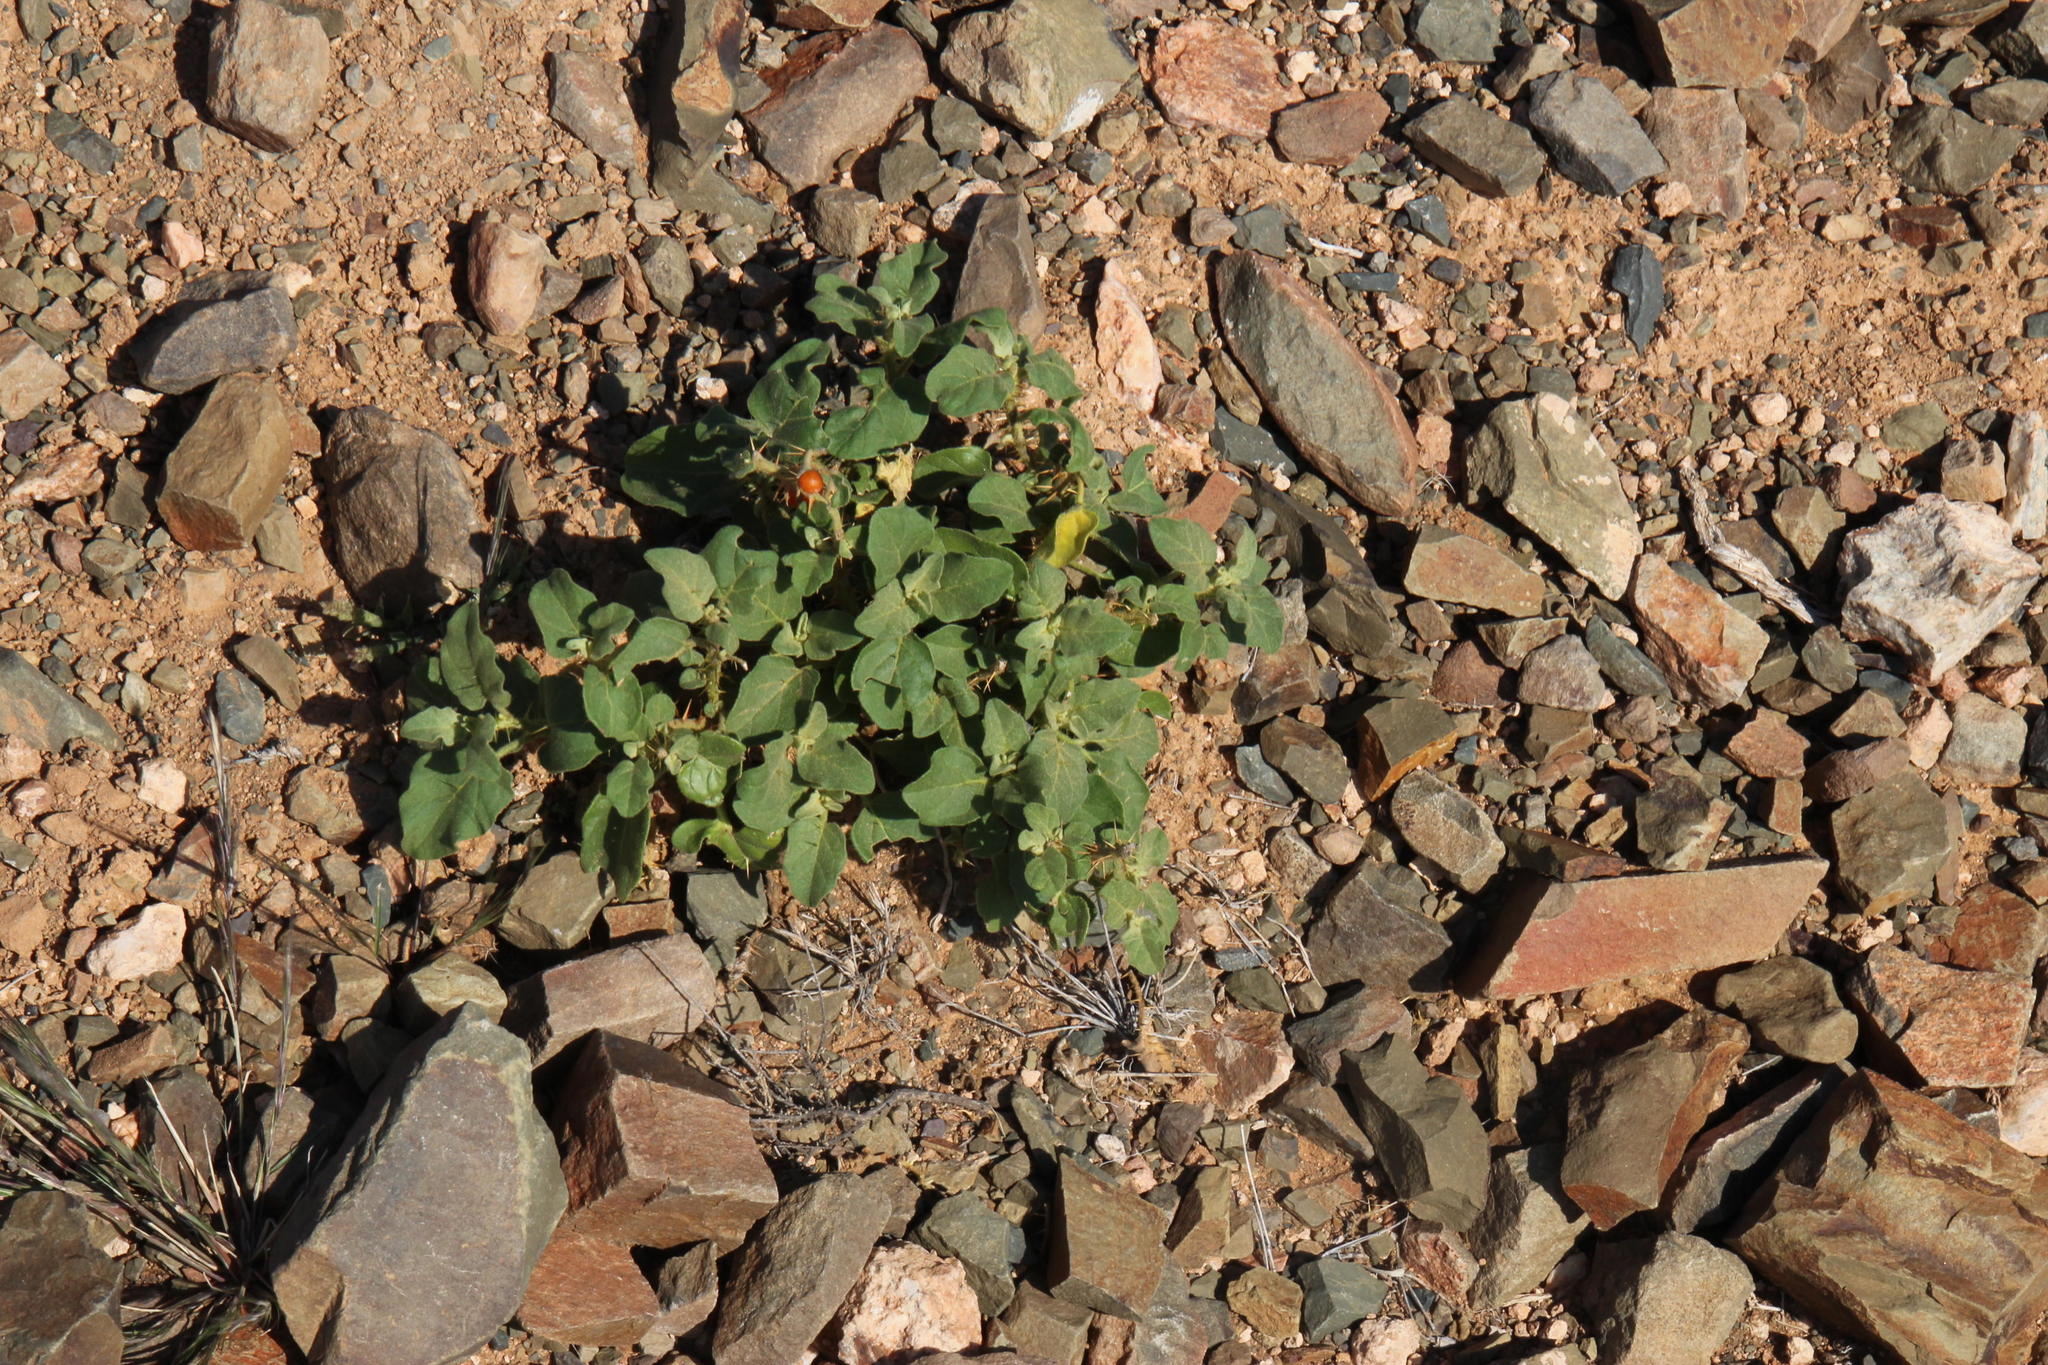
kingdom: Plantae
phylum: Tracheophyta
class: Magnoliopsida
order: Solanales
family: Solanaceae
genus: Solanum
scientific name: Solanum tomentosum
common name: Wild aubergine
